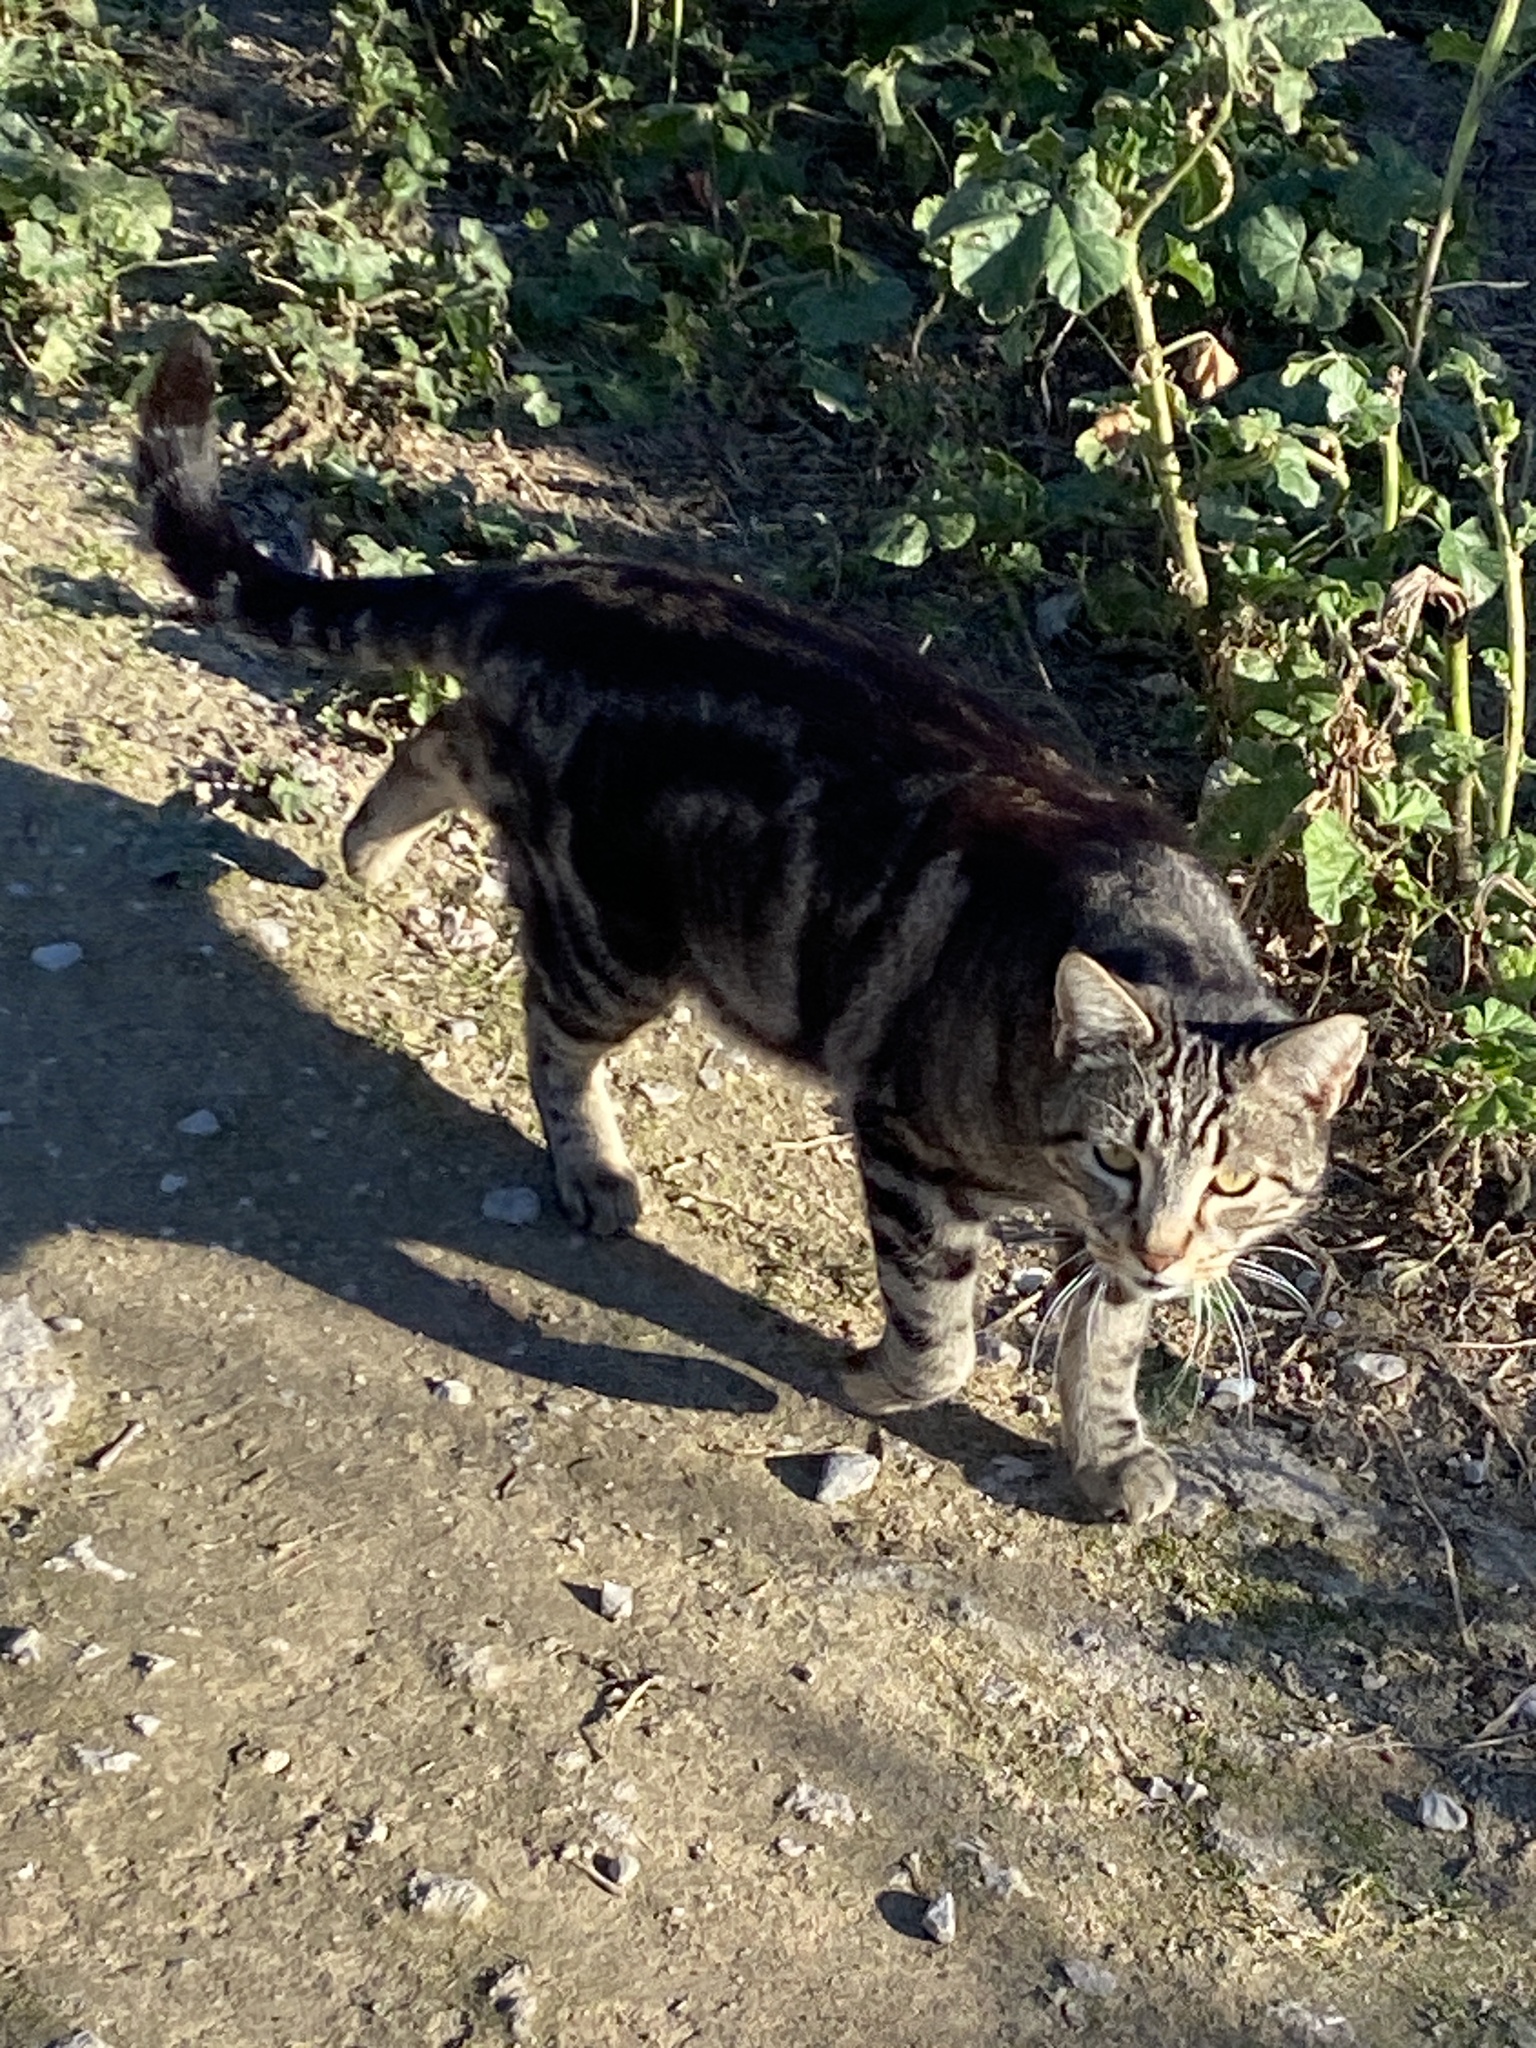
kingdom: Animalia
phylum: Chordata
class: Mammalia
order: Carnivora
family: Felidae
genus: Felis
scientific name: Felis catus
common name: Domestic cat
